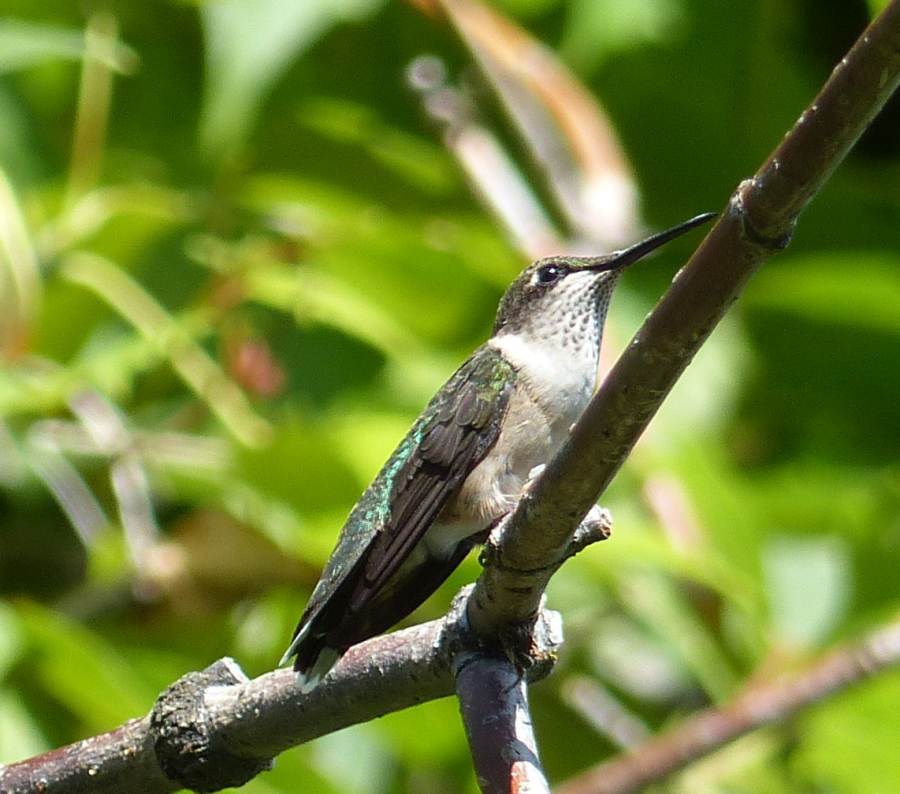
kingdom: Animalia
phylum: Chordata
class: Aves
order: Apodiformes
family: Trochilidae
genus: Archilochus
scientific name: Archilochus colubris
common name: Ruby-throated hummingbird
